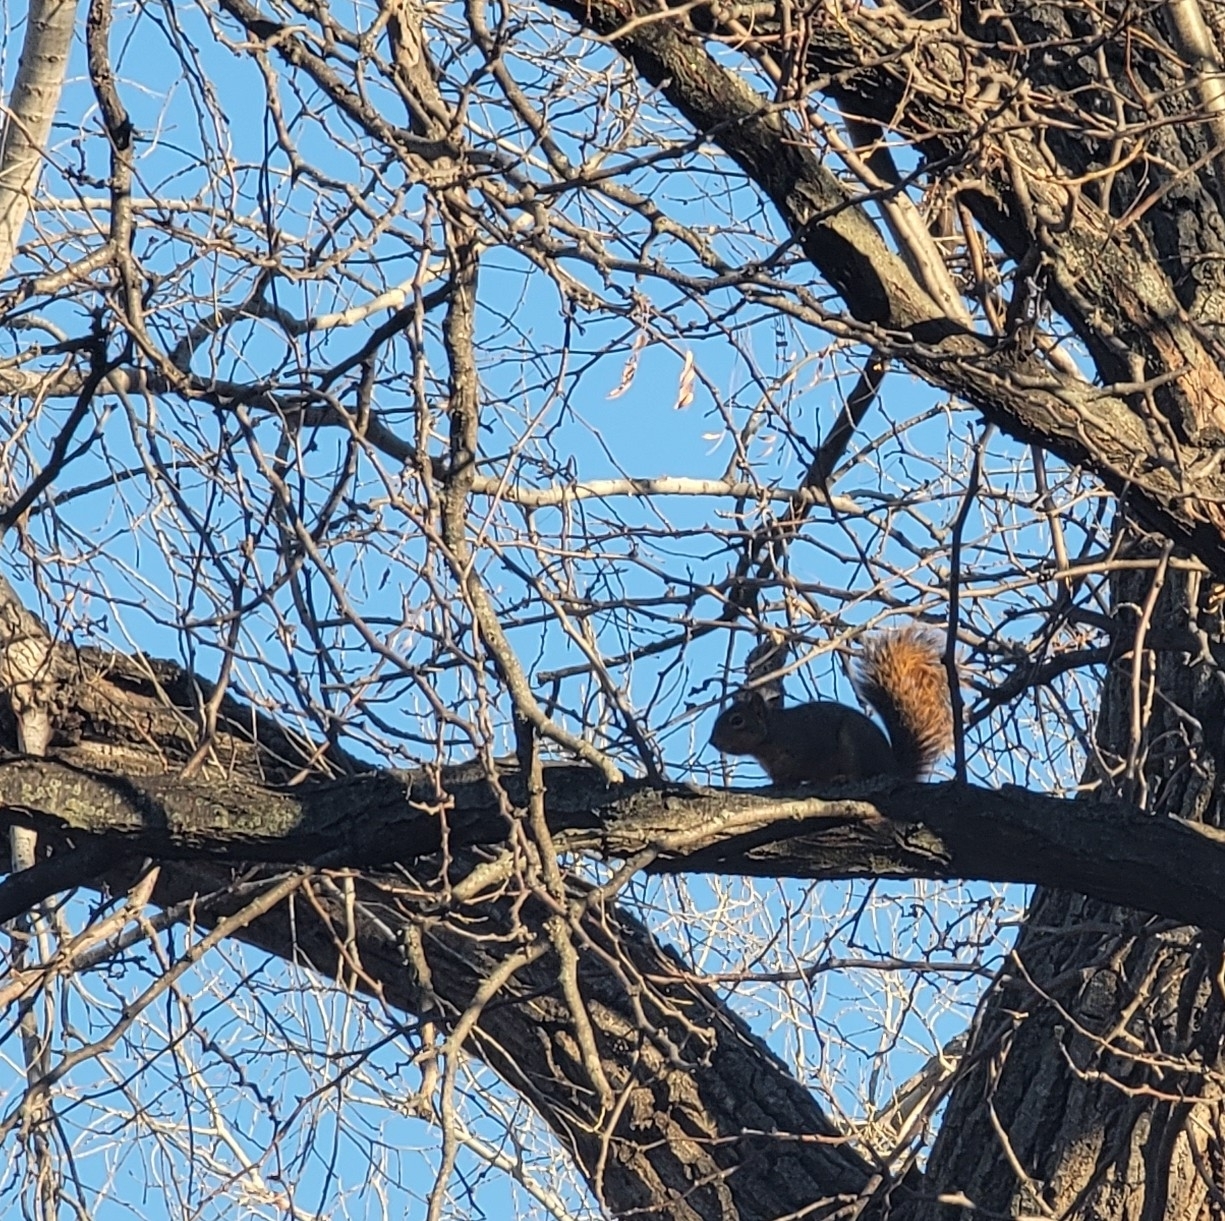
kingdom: Animalia
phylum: Chordata
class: Mammalia
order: Rodentia
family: Sciuridae
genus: Sciurus
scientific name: Sciurus niger
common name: Fox squirrel
